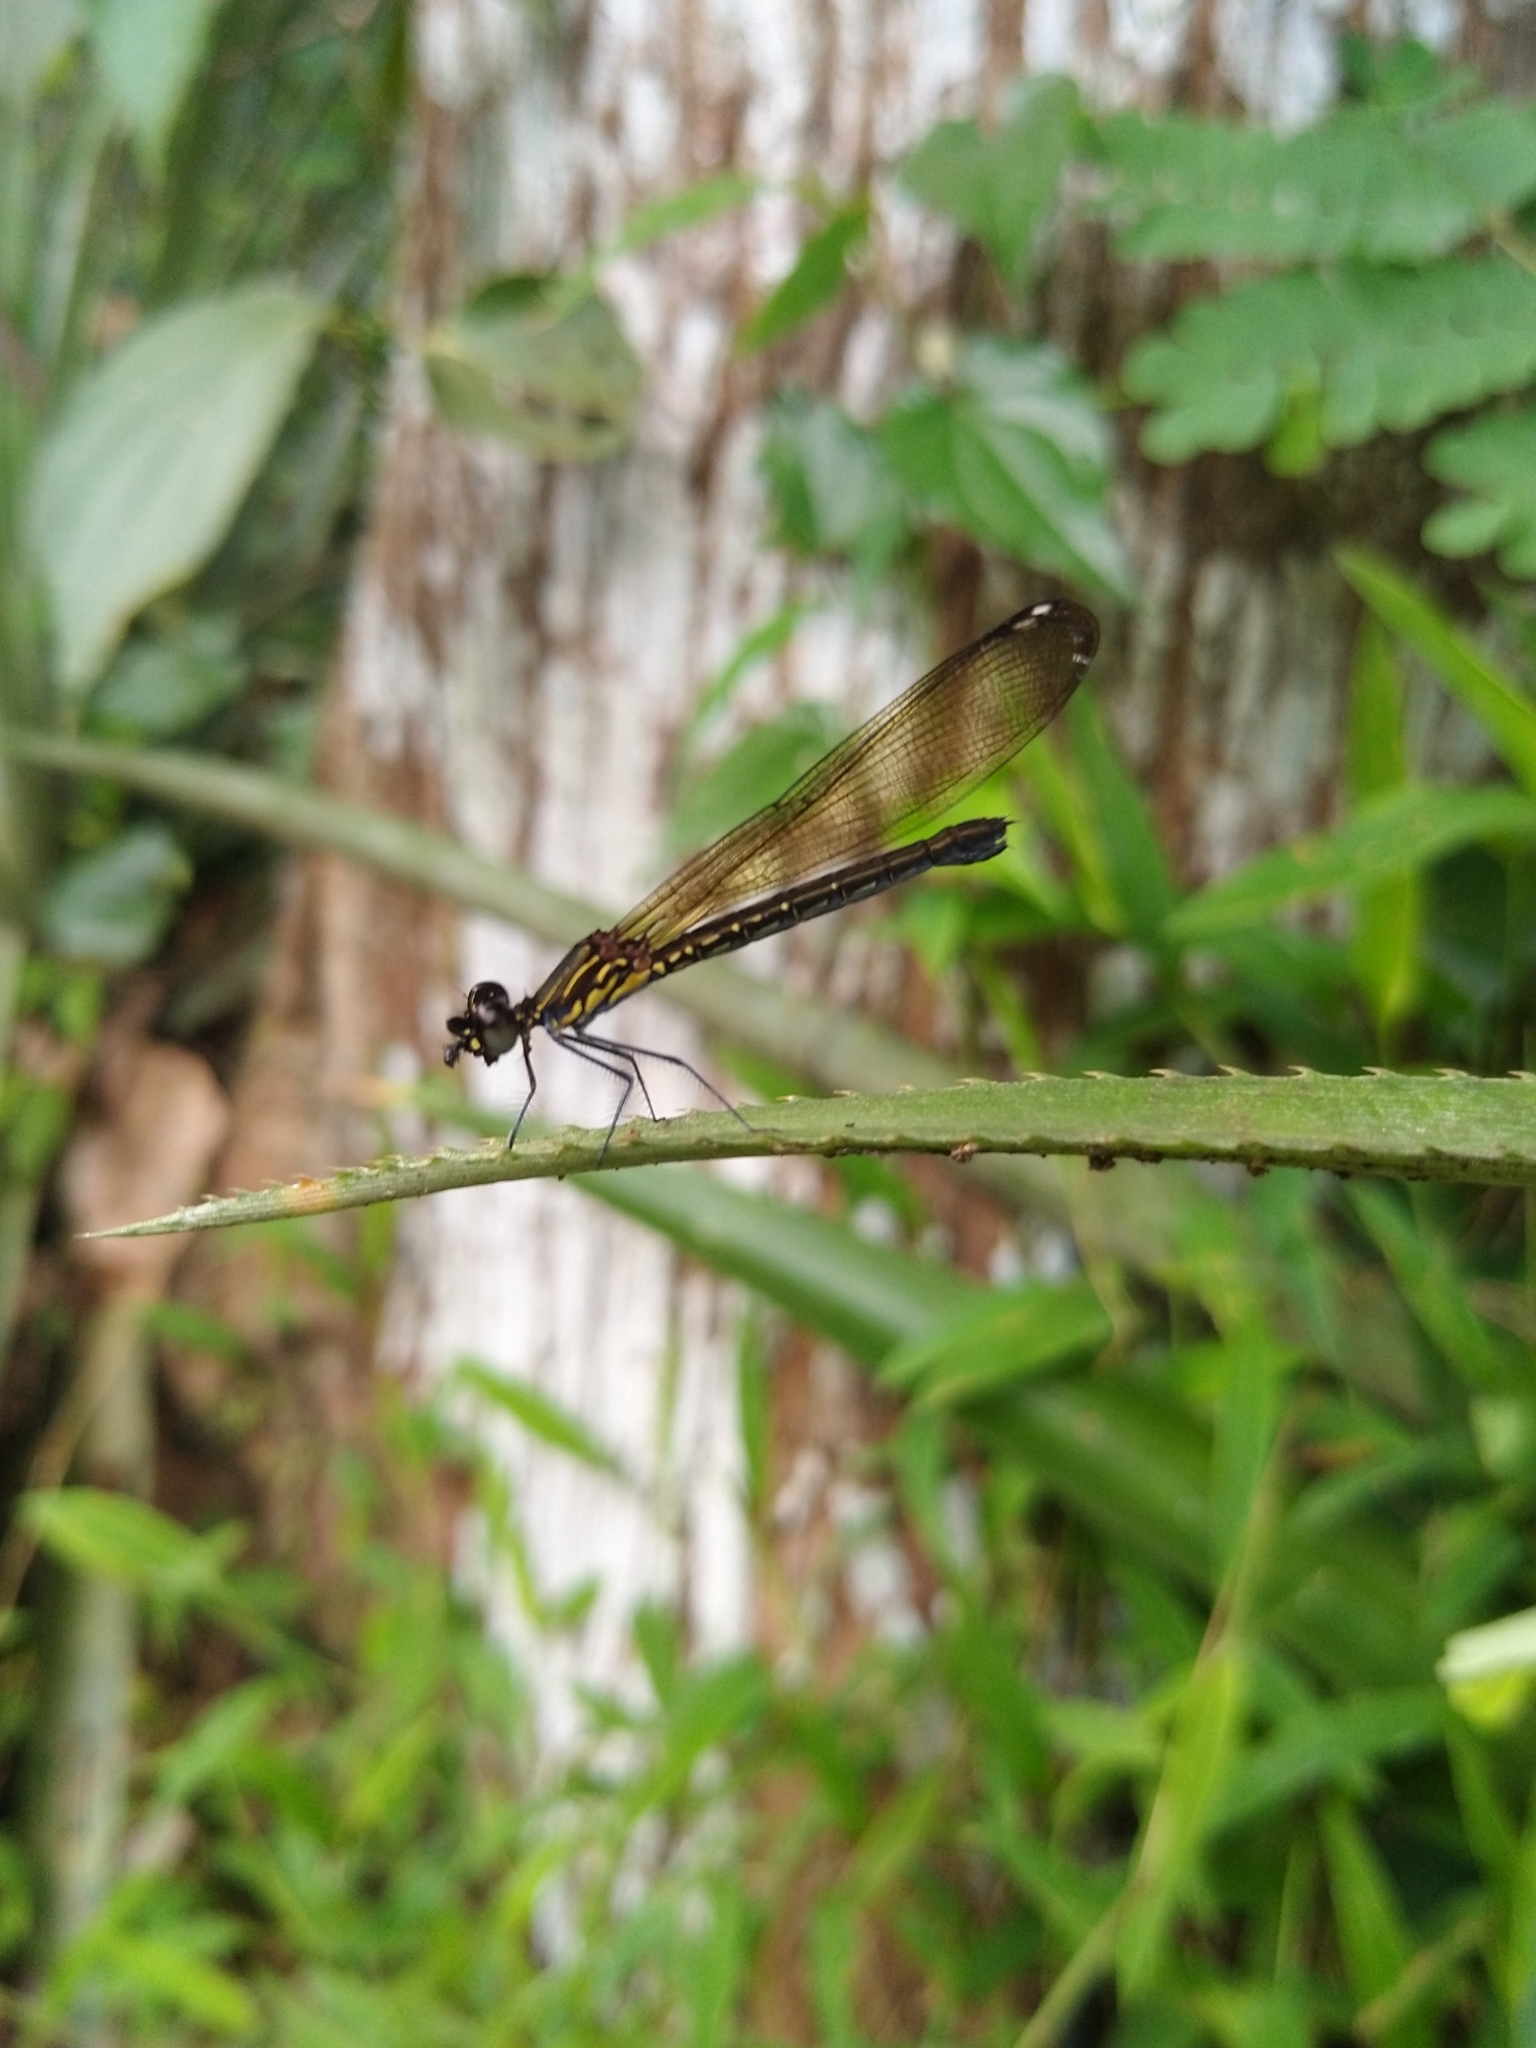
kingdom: Animalia
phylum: Arthropoda
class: Insecta
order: Odonata
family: Chlorocyphidae
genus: Heliocypha
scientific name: Heliocypha bisignata
